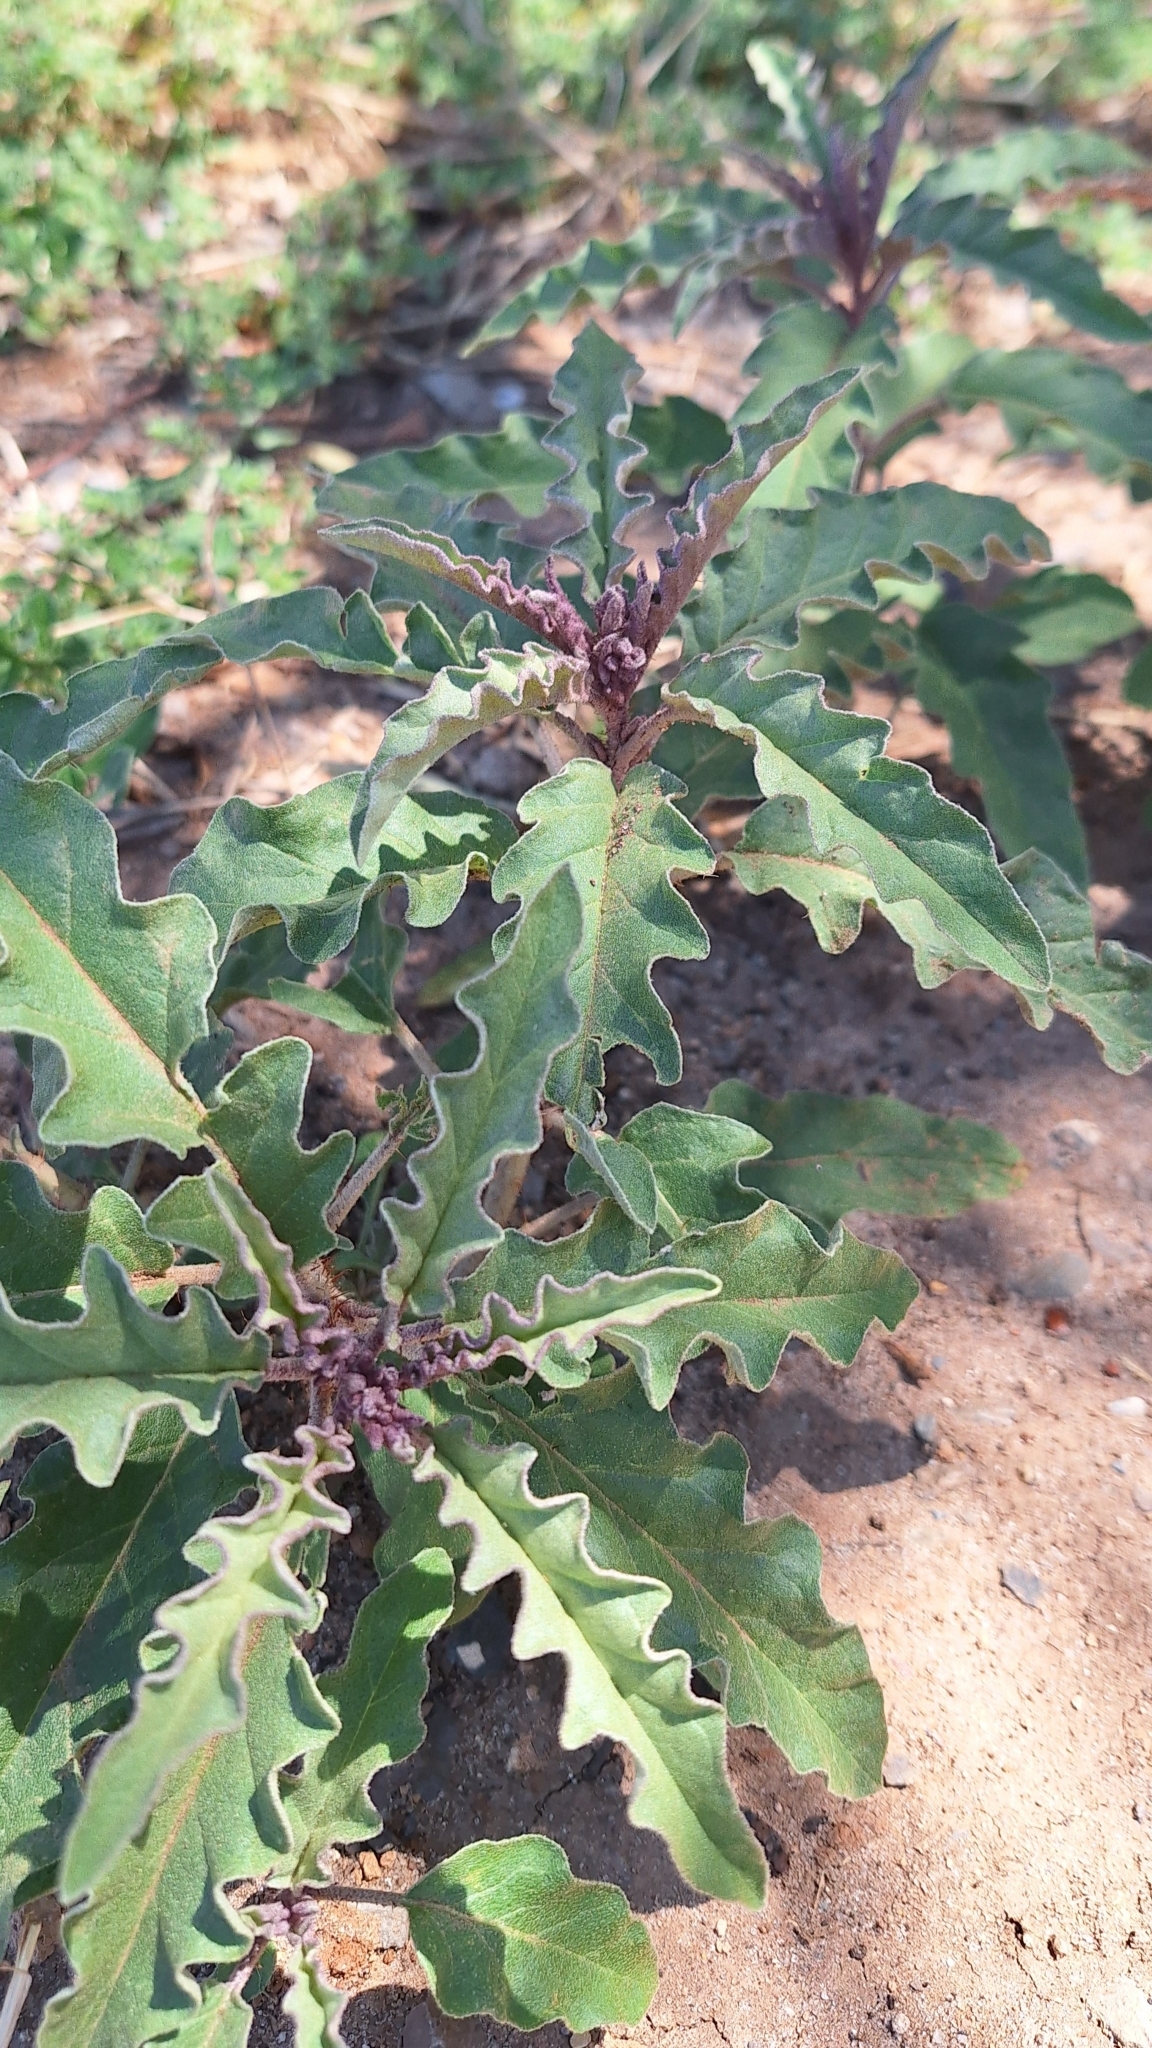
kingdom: Plantae
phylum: Tracheophyta
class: Magnoliopsida
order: Solanales
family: Solanaceae
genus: Solanum
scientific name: Solanum elaeagnifolium
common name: Silverleaf nightshade
